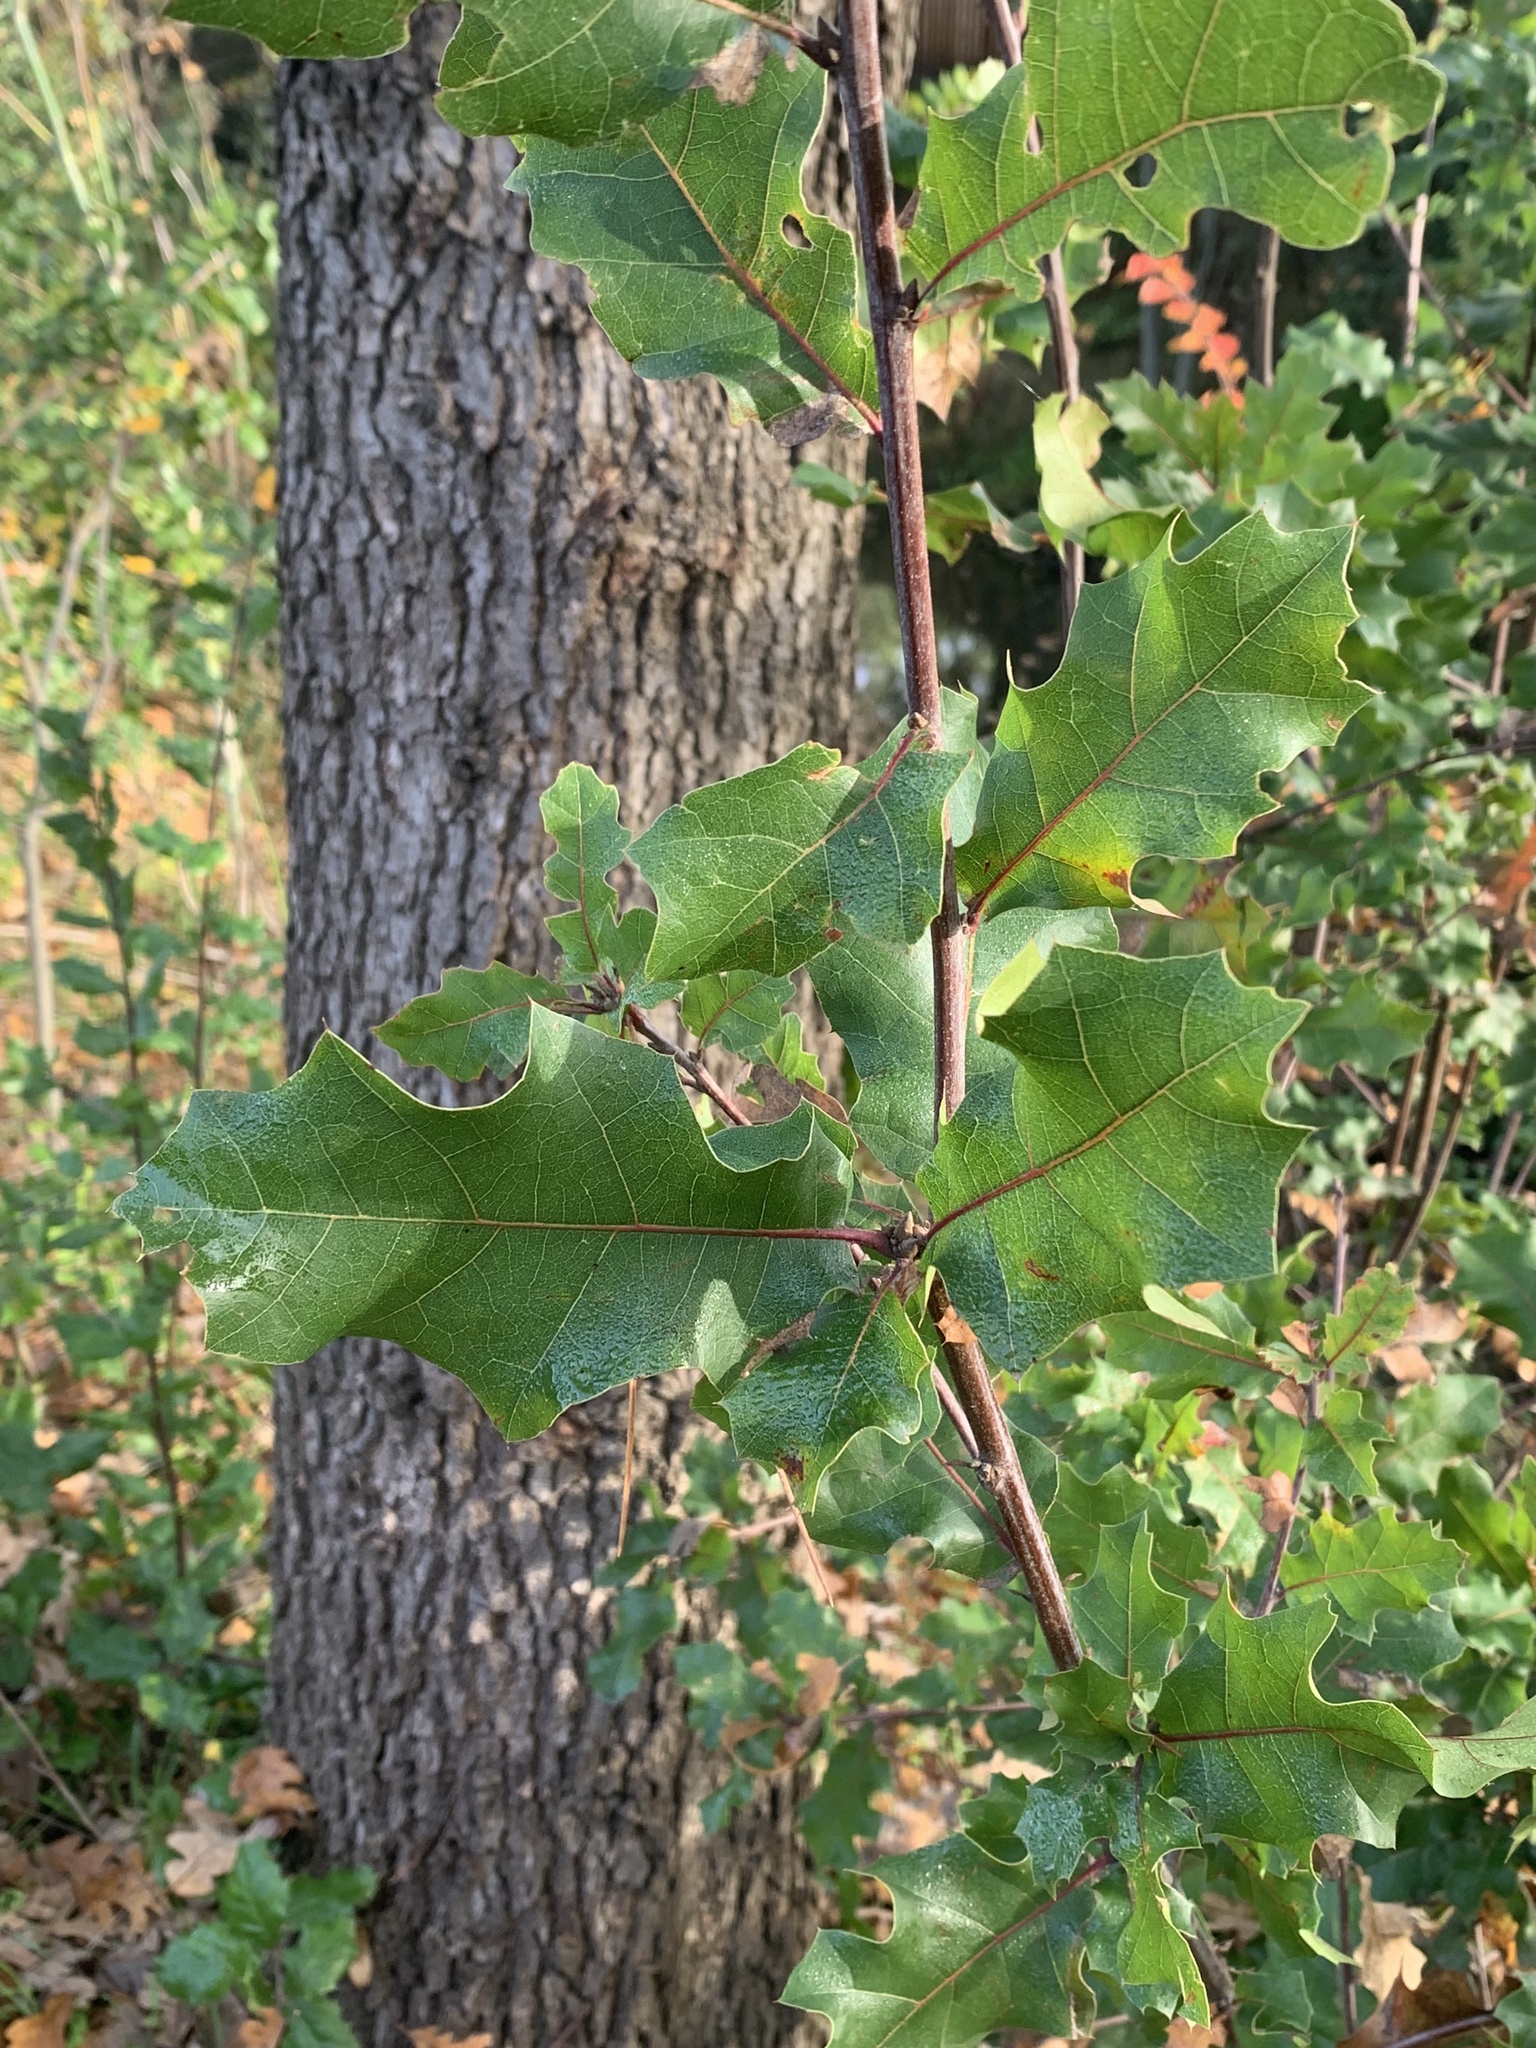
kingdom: Plantae
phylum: Tracheophyta
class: Magnoliopsida
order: Fagales
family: Fagaceae
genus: Quercus
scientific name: Quercus morehus
